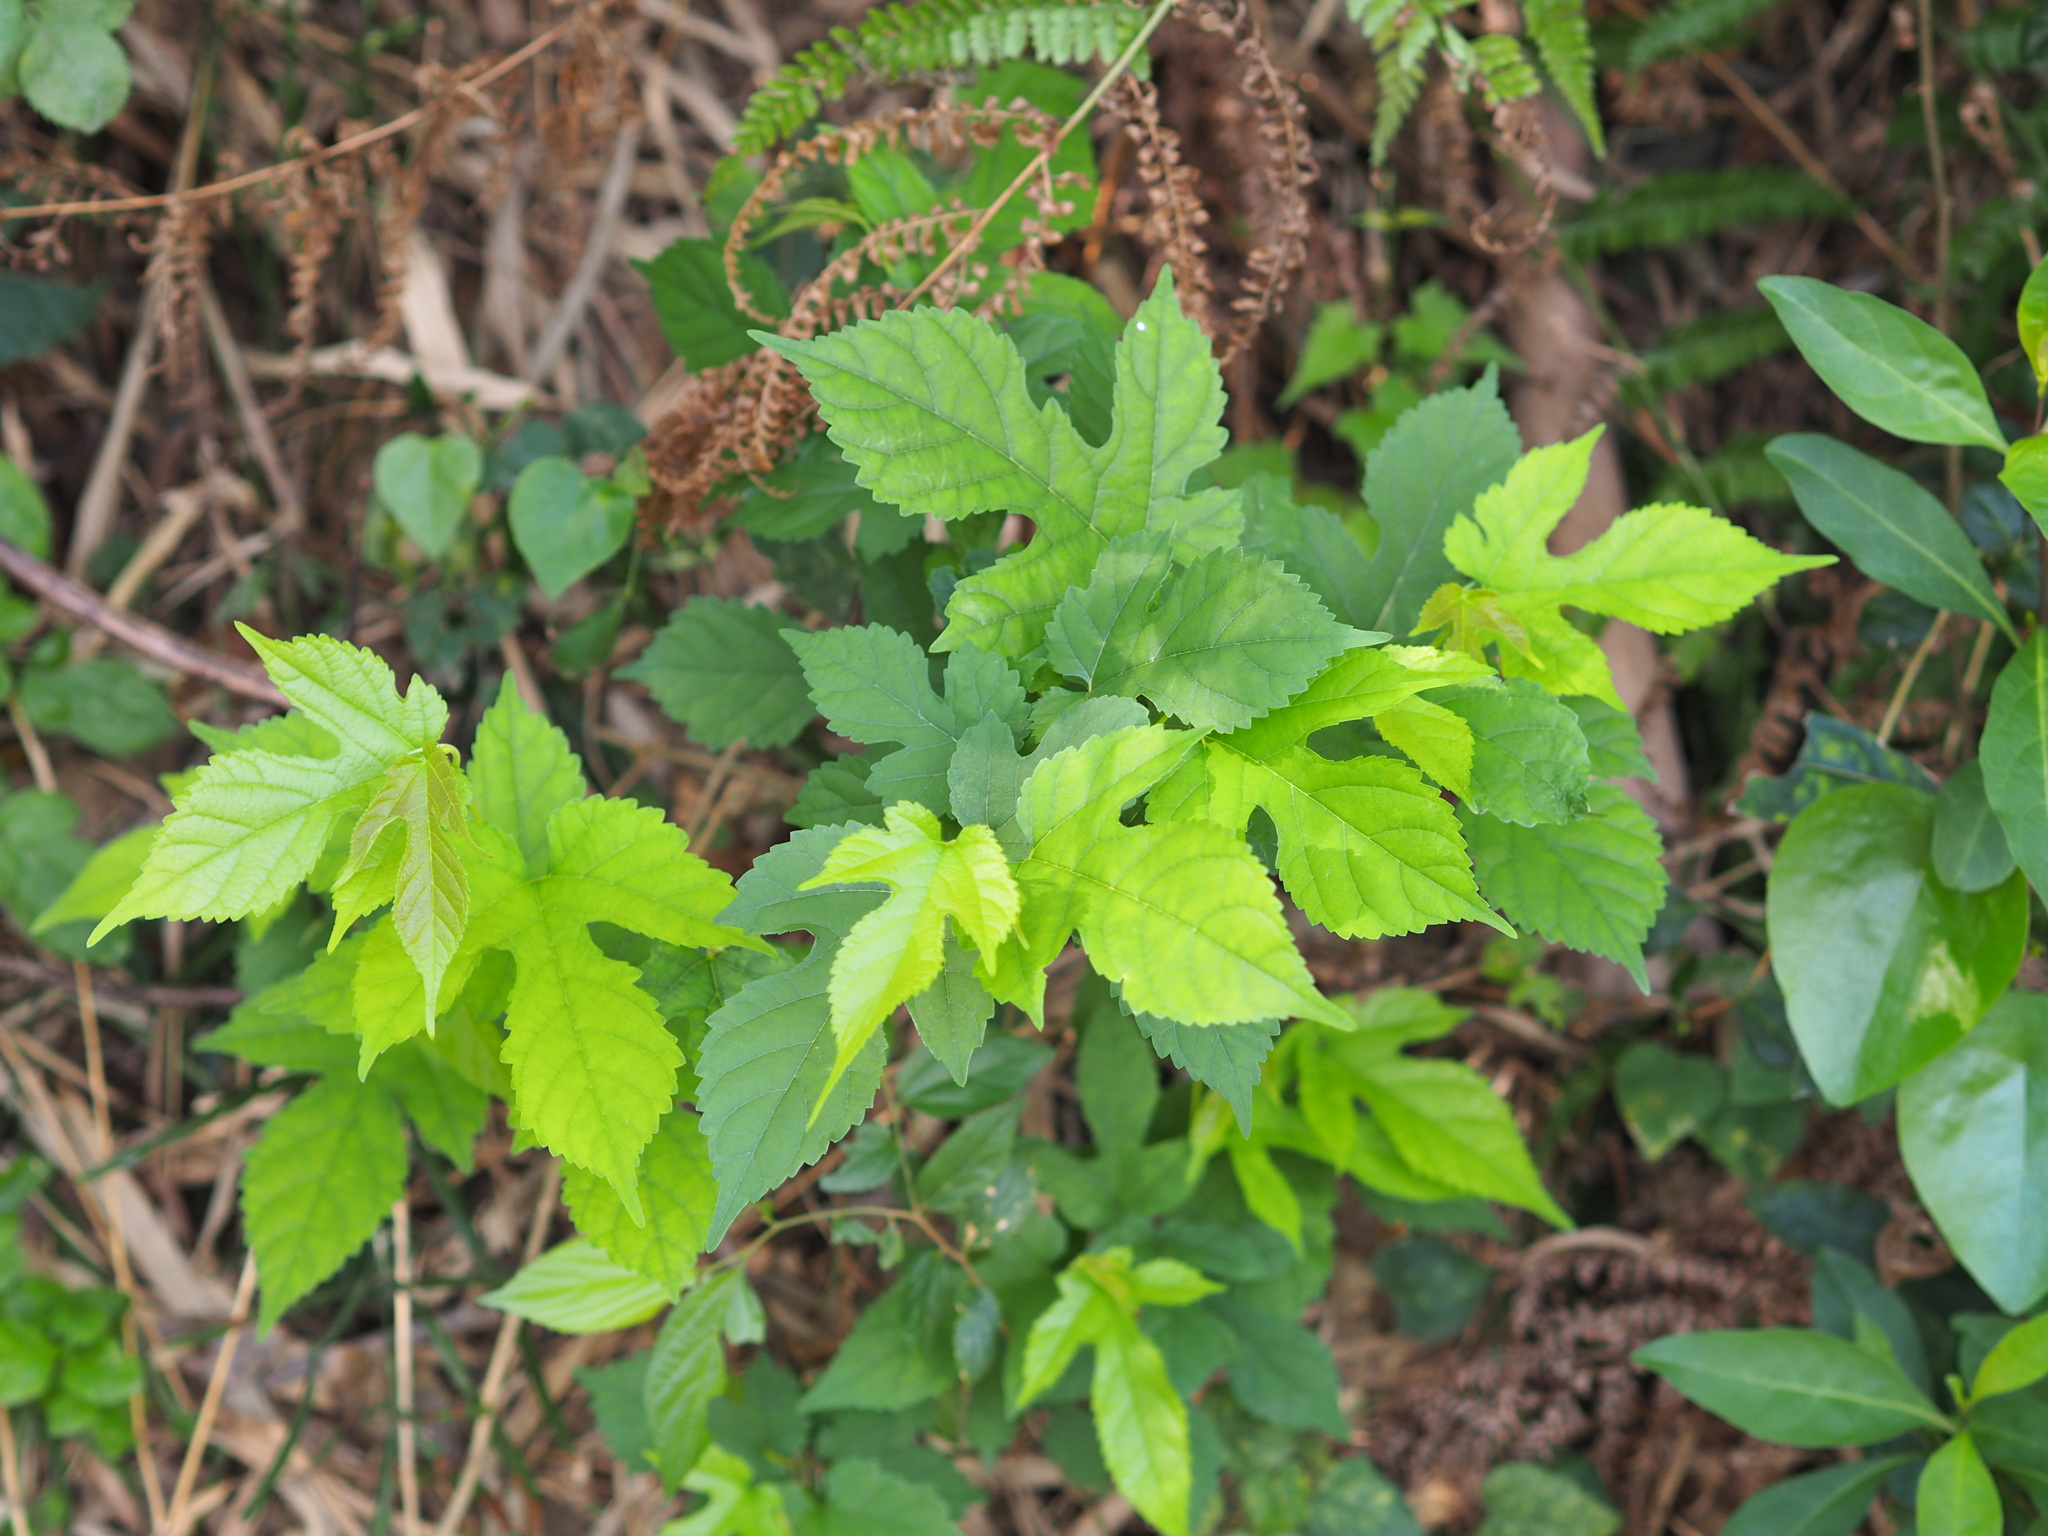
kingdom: Plantae
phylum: Tracheophyta
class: Magnoliopsida
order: Rosales
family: Moraceae
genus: Morus
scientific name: Morus indica
